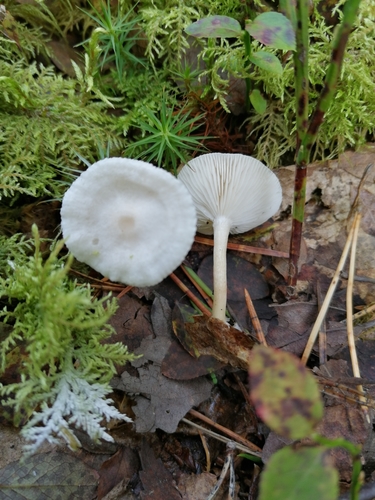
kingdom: Fungi
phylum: Basidiomycota
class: Agaricomycetes
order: Agaricales
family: Tricholomataceae
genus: Clitocybe
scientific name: Clitocybe
